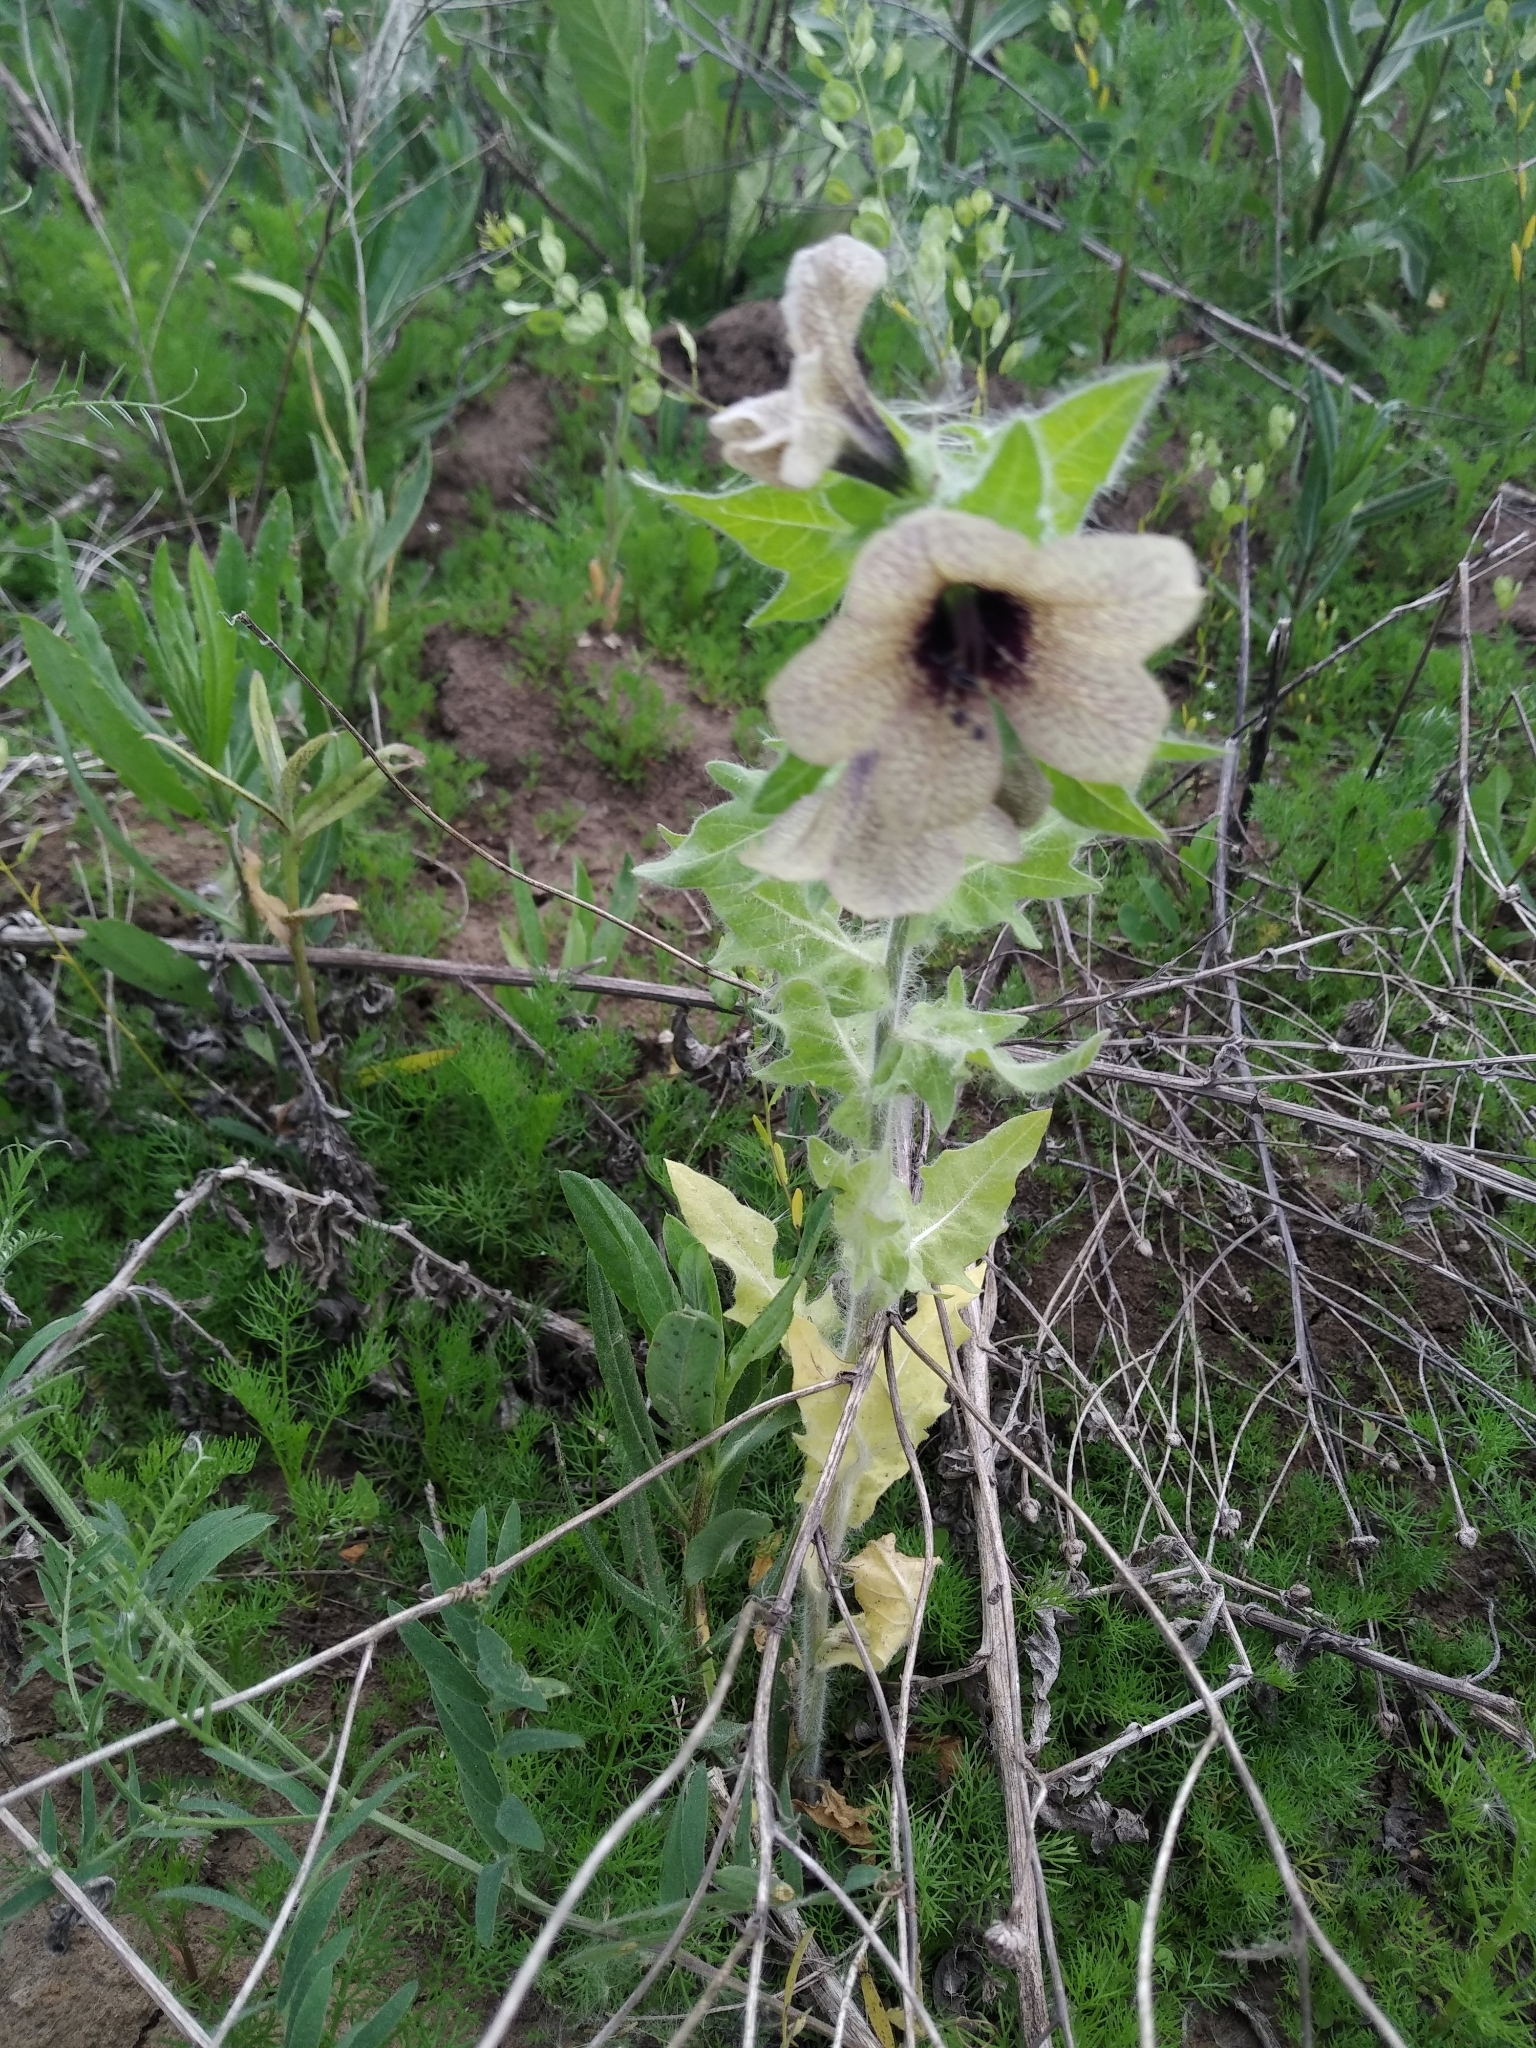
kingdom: Plantae
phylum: Tracheophyta
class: Magnoliopsida
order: Solanales
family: Solanaceae
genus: Hyoscyamus
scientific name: Hyoscyamus niger
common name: Henbane
